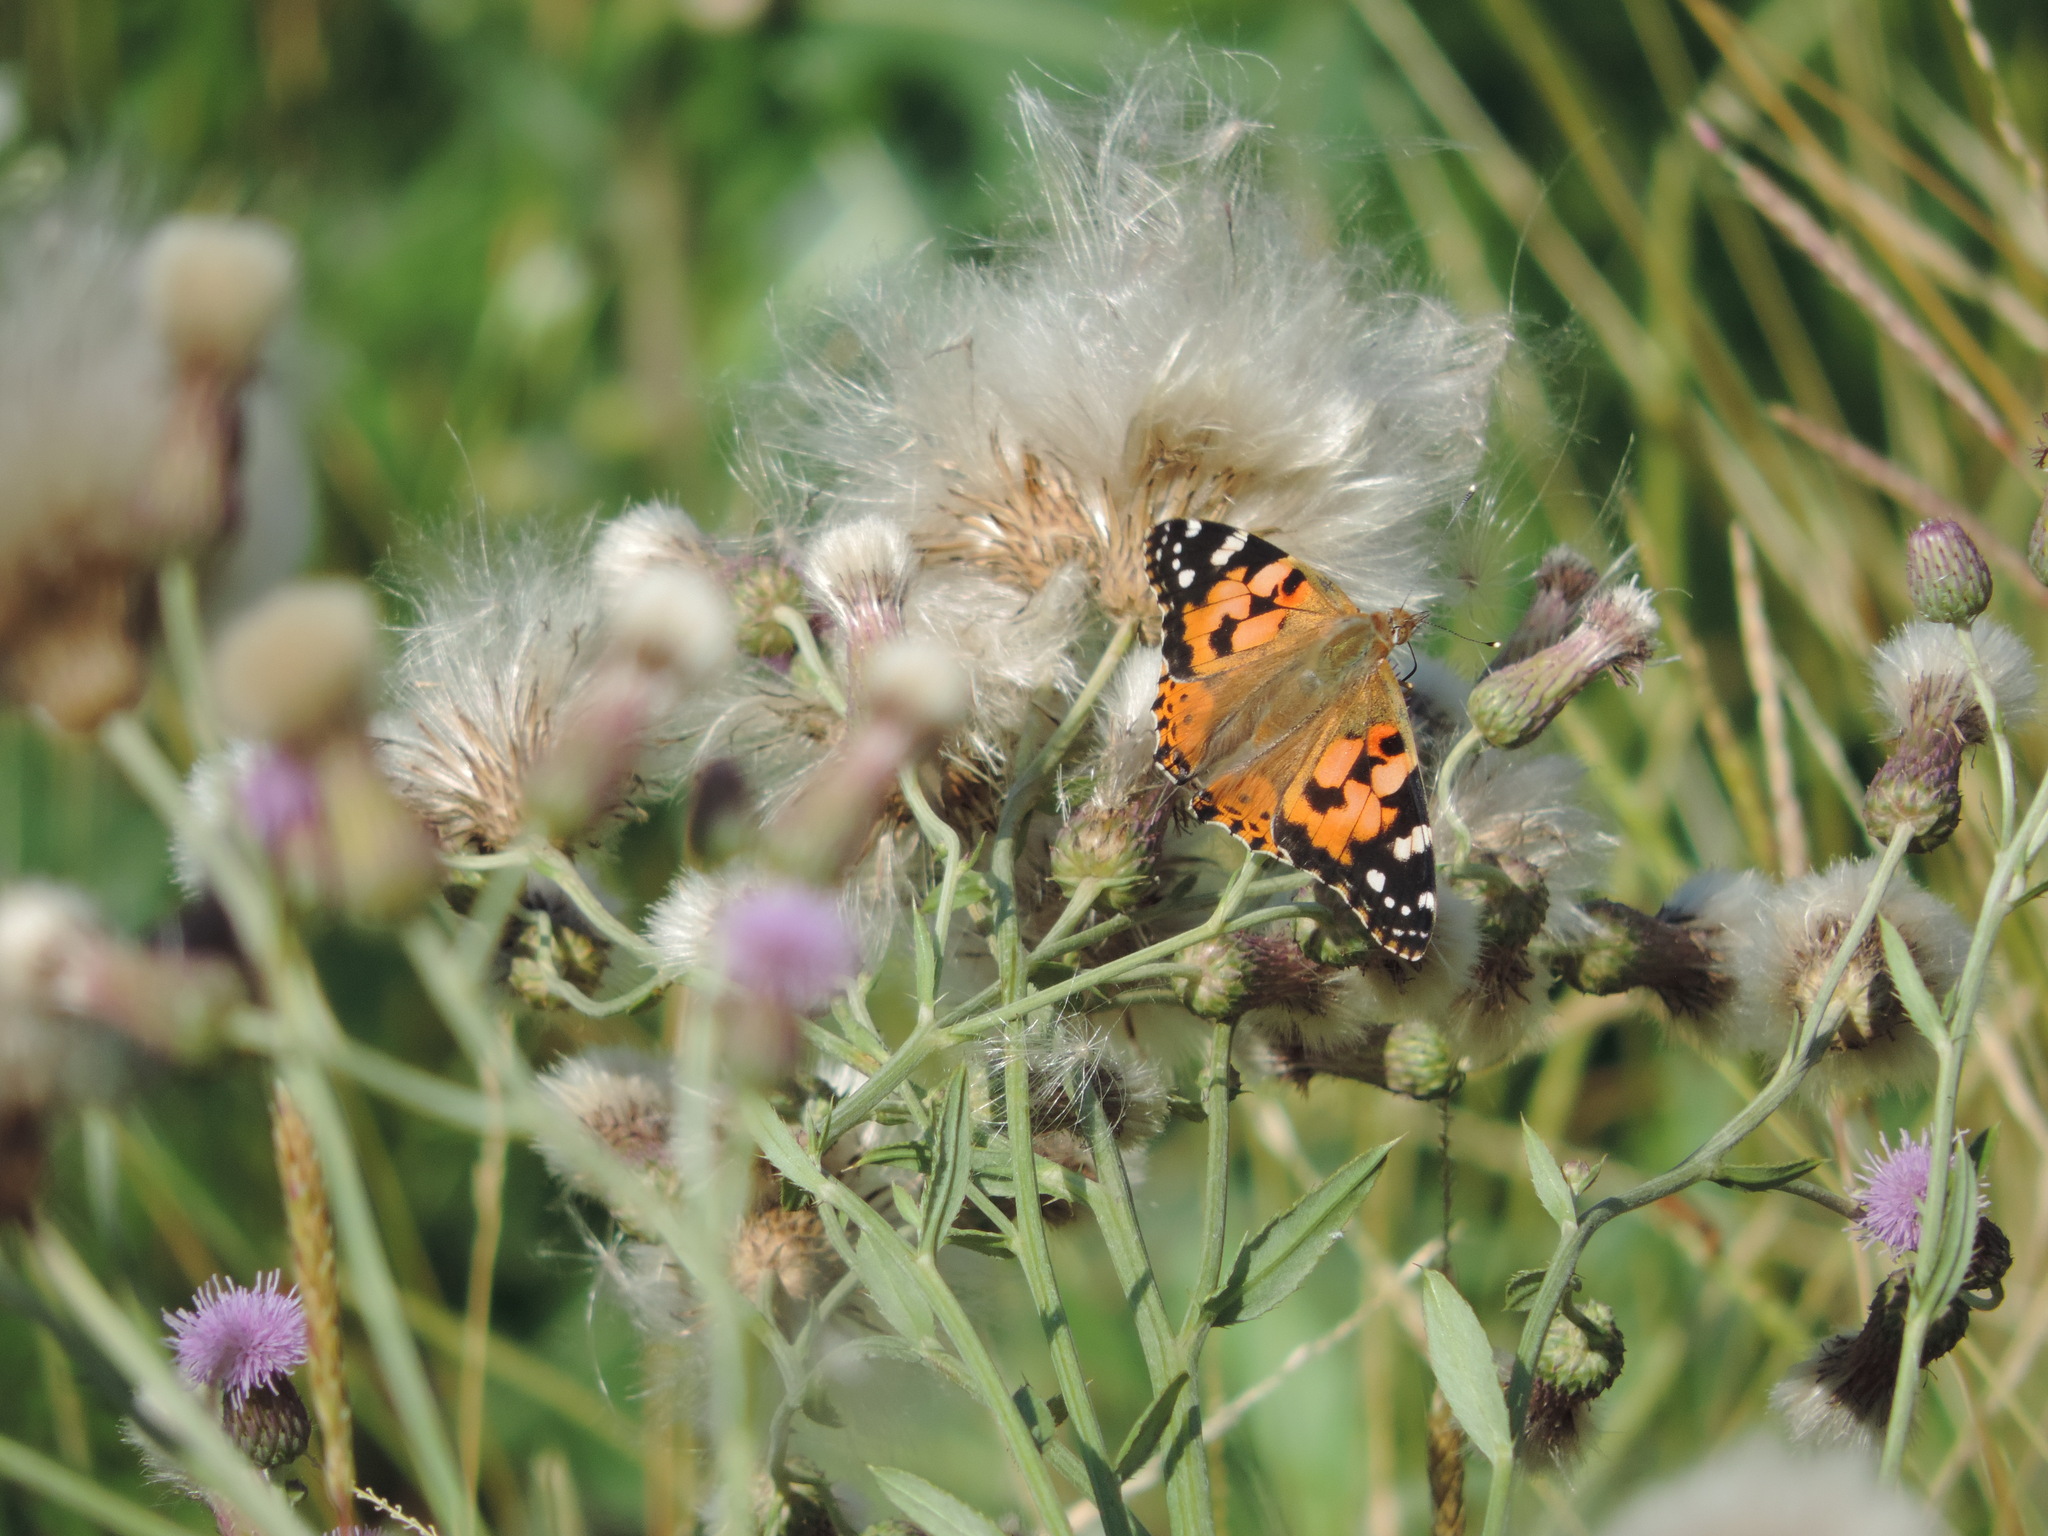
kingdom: Animalia
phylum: Arthropoda
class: Insecta
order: Lepidoptera
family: Nymphalidae
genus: Vanessa
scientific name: Vanessa cardui
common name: Painted lady
